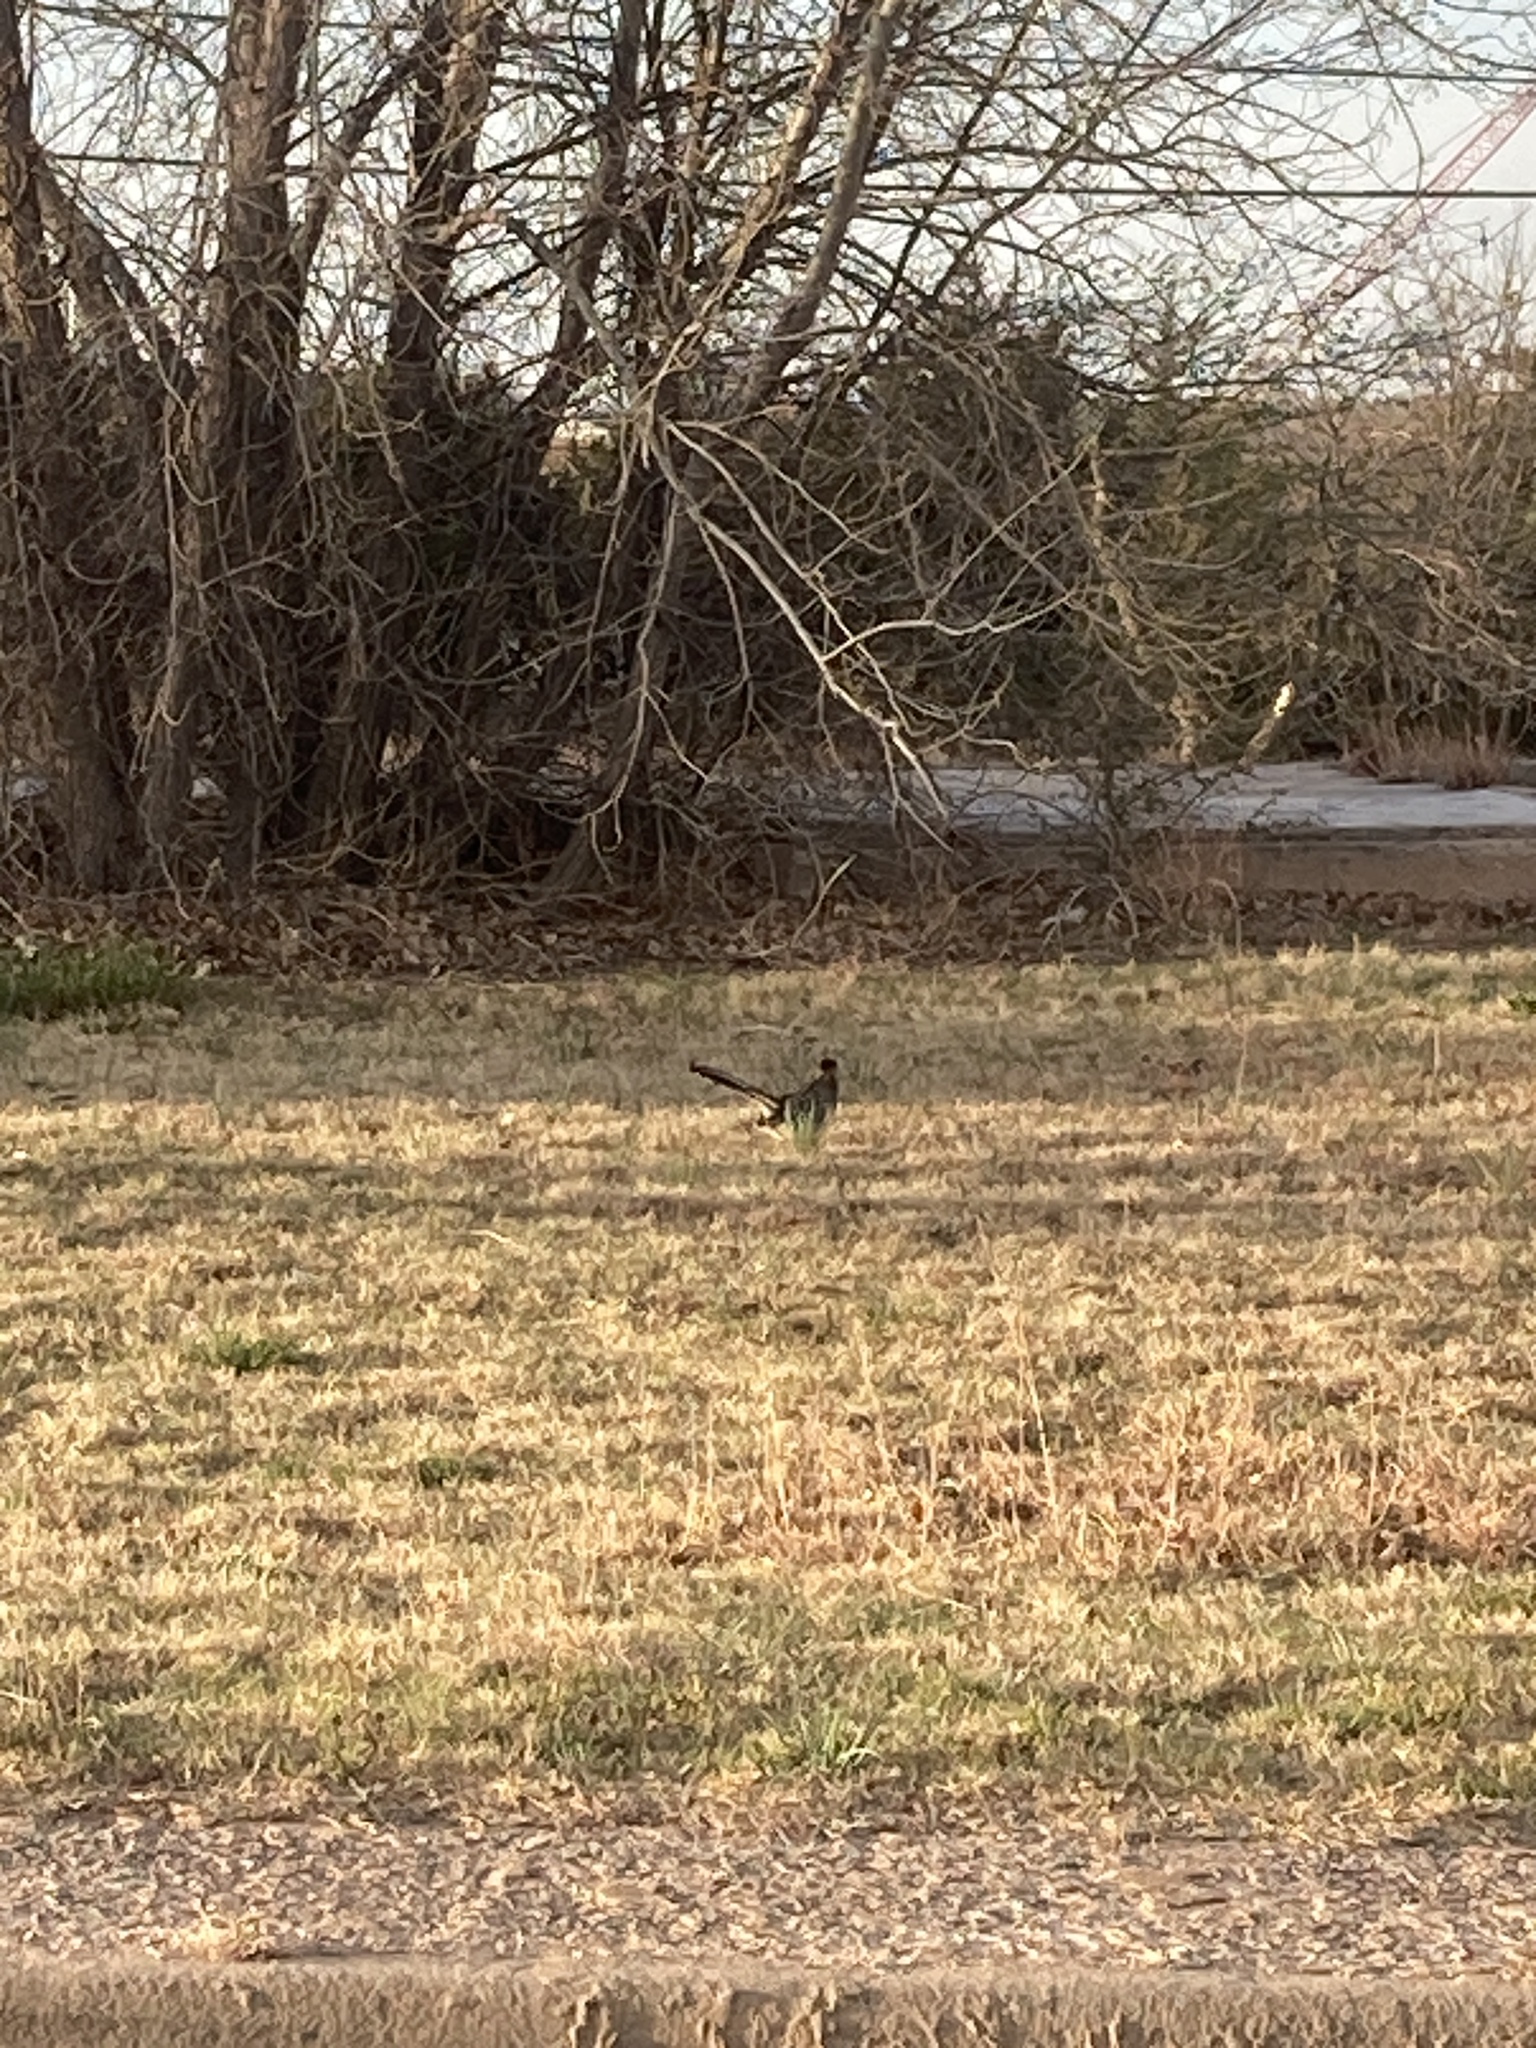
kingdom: Animalia
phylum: Chordata
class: Aves
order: Cuculiformes
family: Cuculidae
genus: Geococcyx
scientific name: Geococcyx californianus
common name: Greater roadrunner
